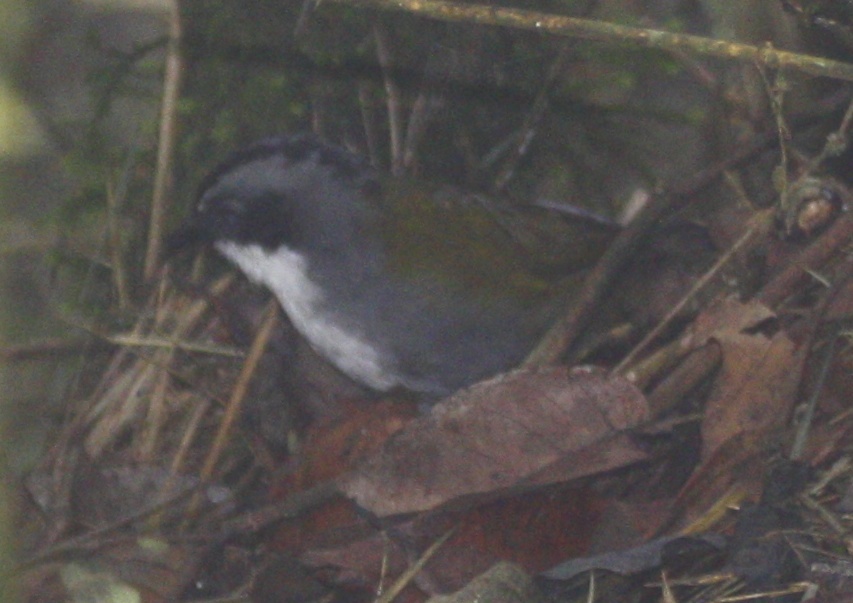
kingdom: Animalia
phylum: Chordata
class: Aves
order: Passeriformes
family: Passerellidae
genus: Arremon
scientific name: Arremon assimilis
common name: Grey-browed brushfinch
